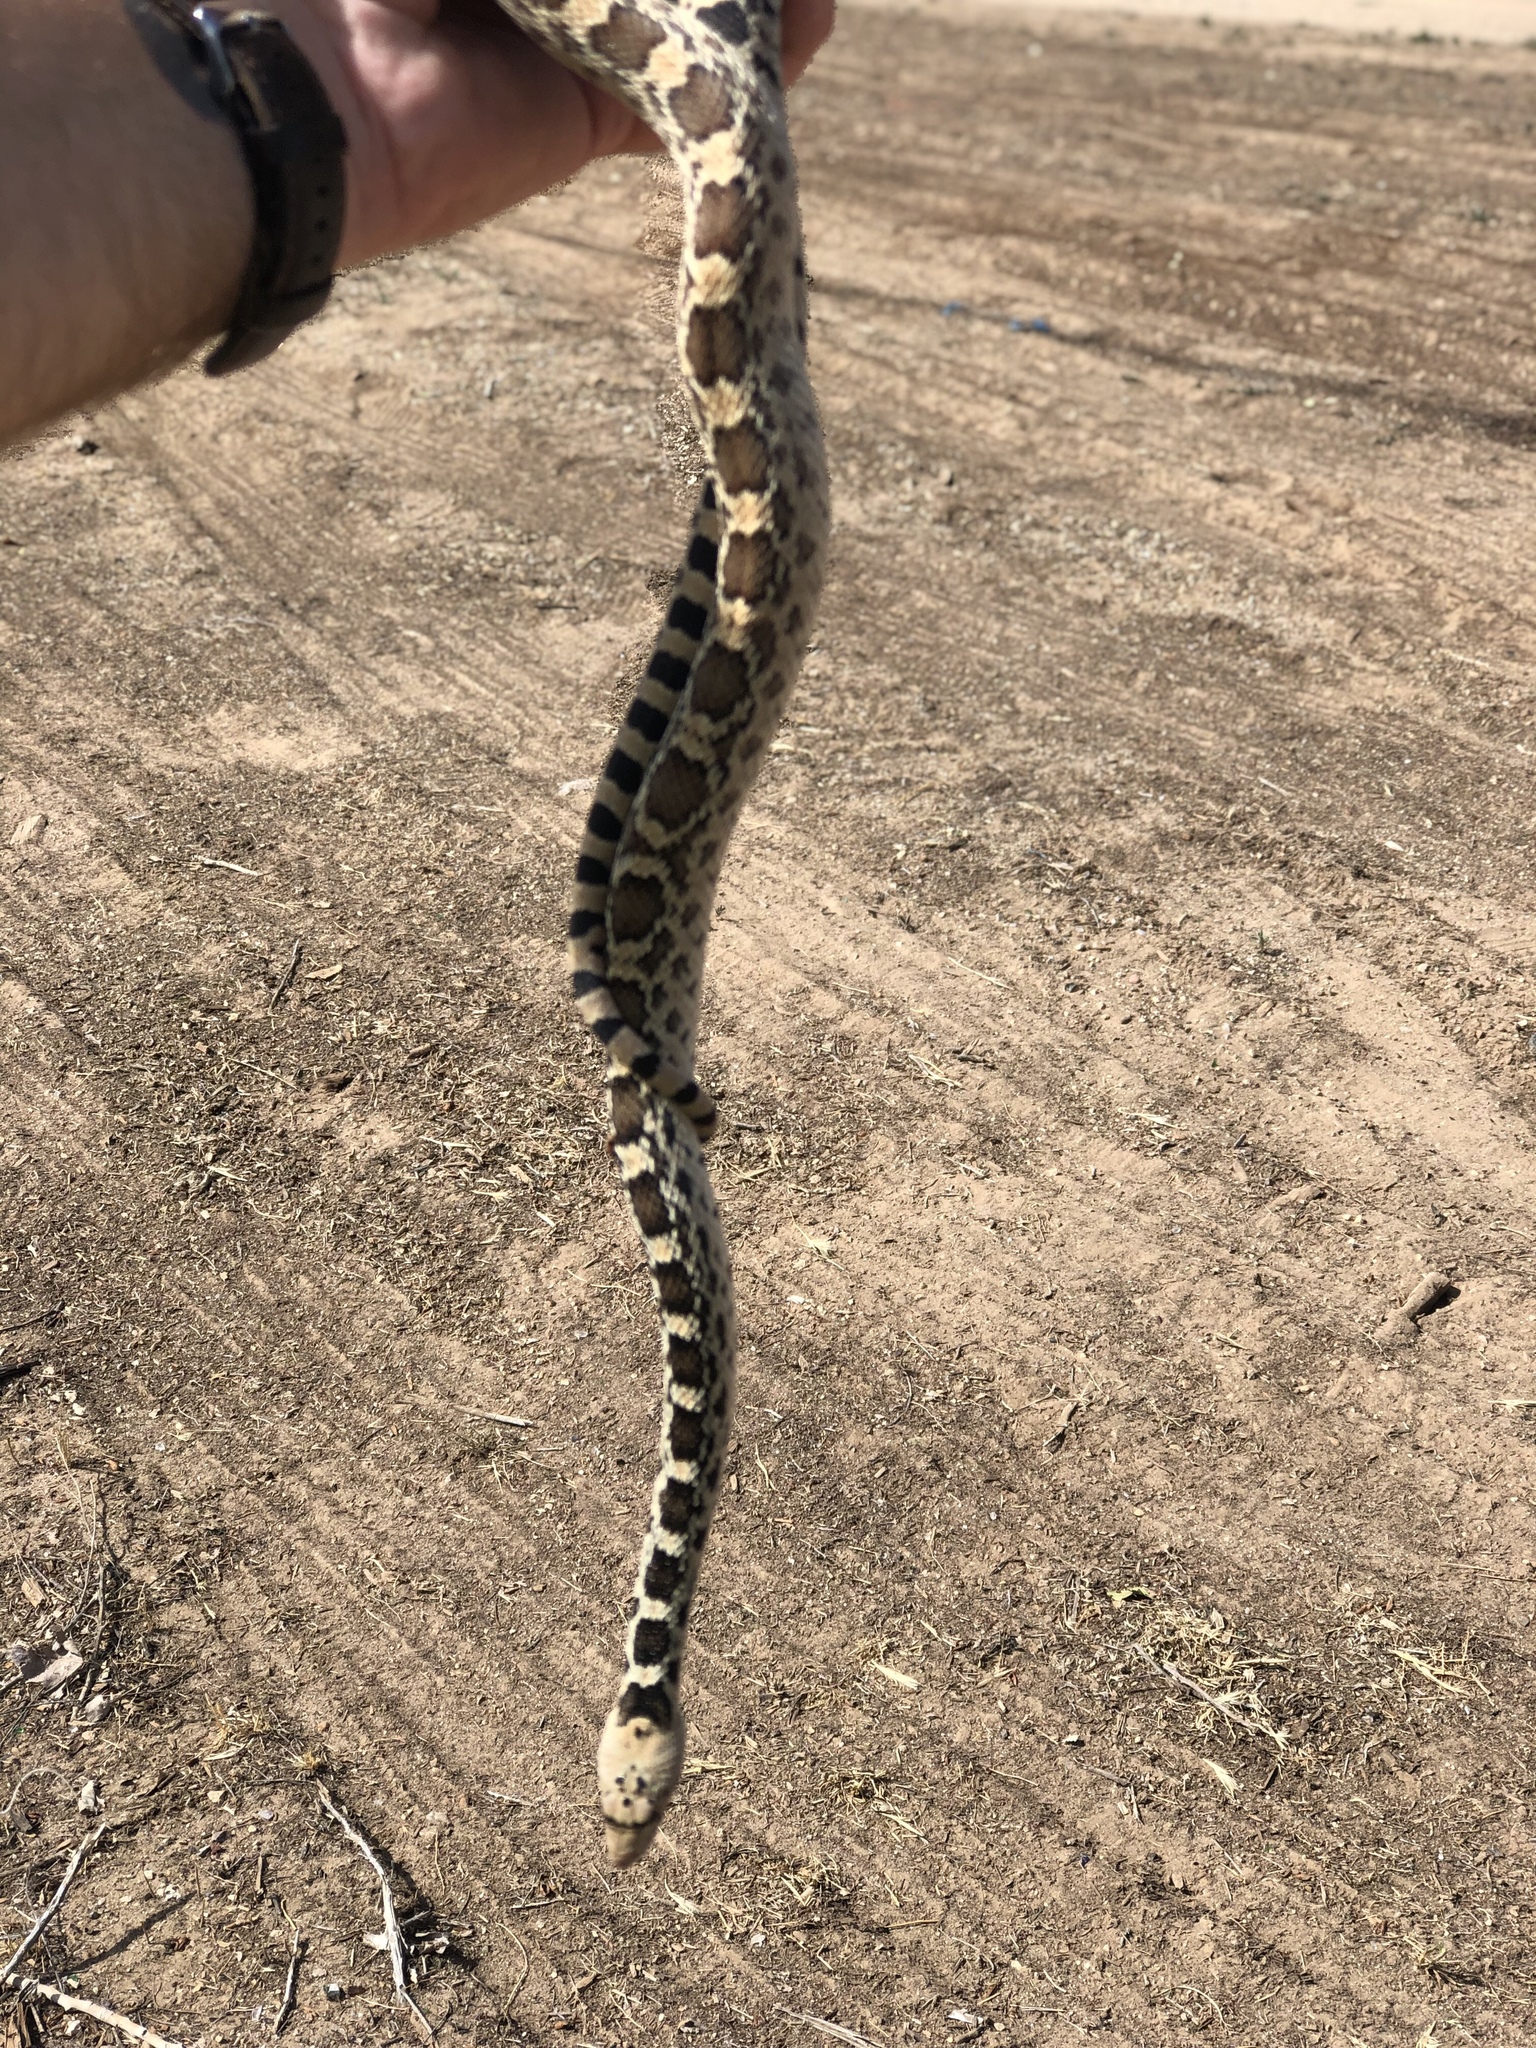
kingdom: Animalia
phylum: Chordata
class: Squamata
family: Colubridae
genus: Pituophis
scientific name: Pituophis catenifer
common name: Gopher snake
